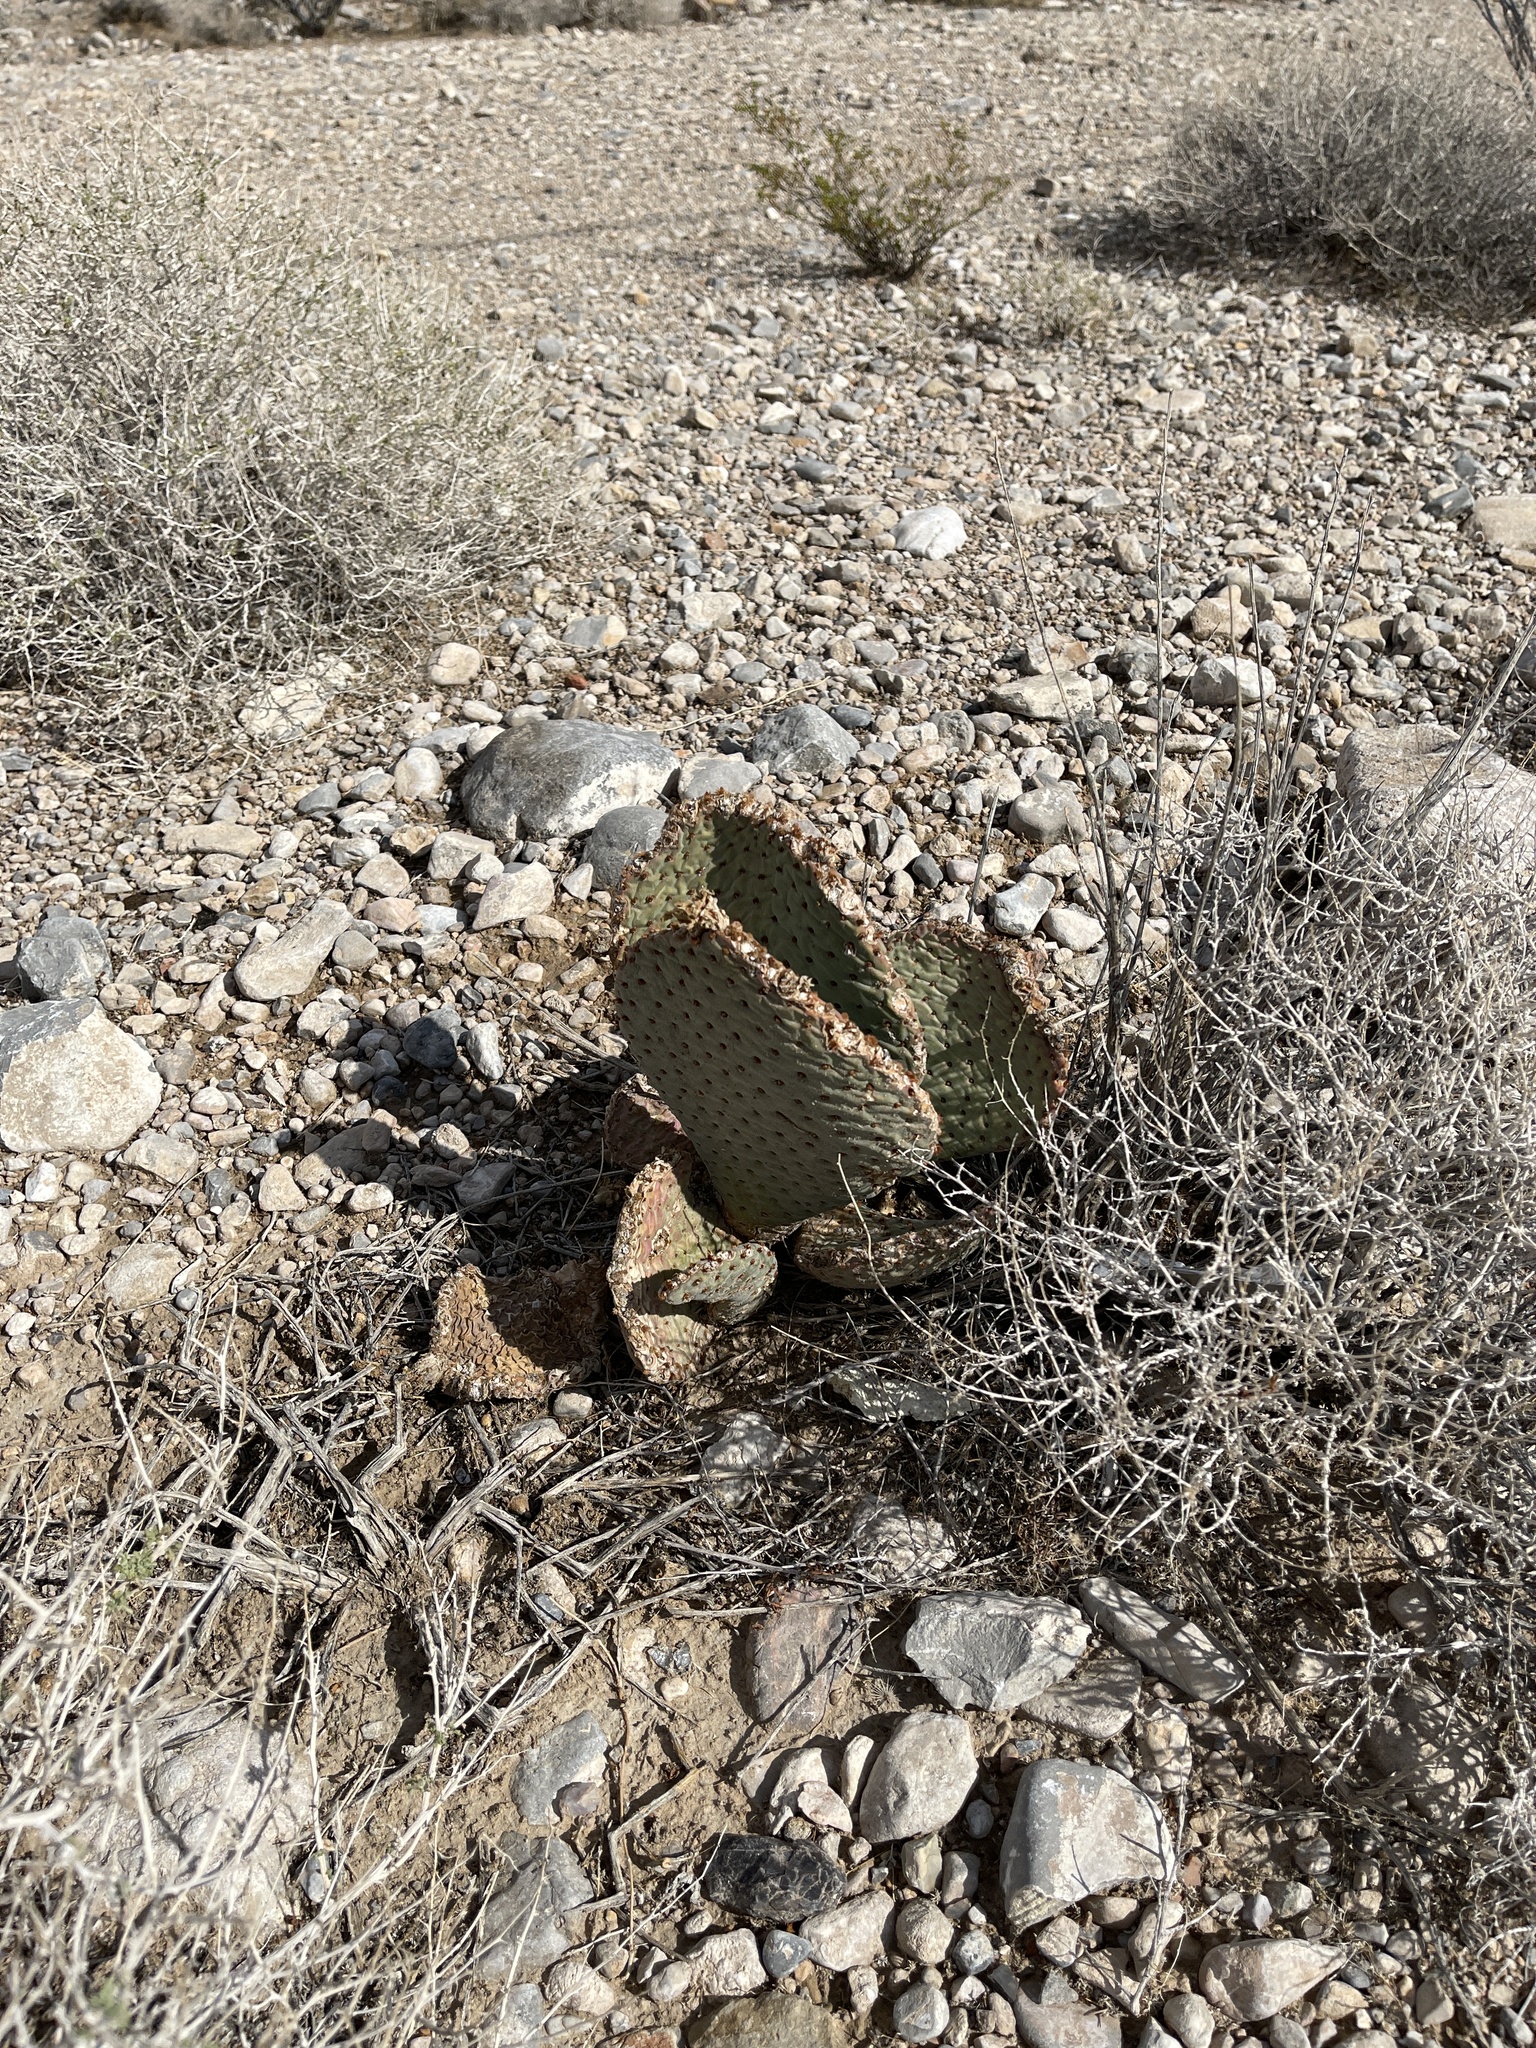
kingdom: Plantae
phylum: Tracheophyta
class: Magnoliopsida
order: Caryophyllales
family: Cactaceae
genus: Opuntia
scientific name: Opuntia basilaris
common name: Beavertail prickly-pear
